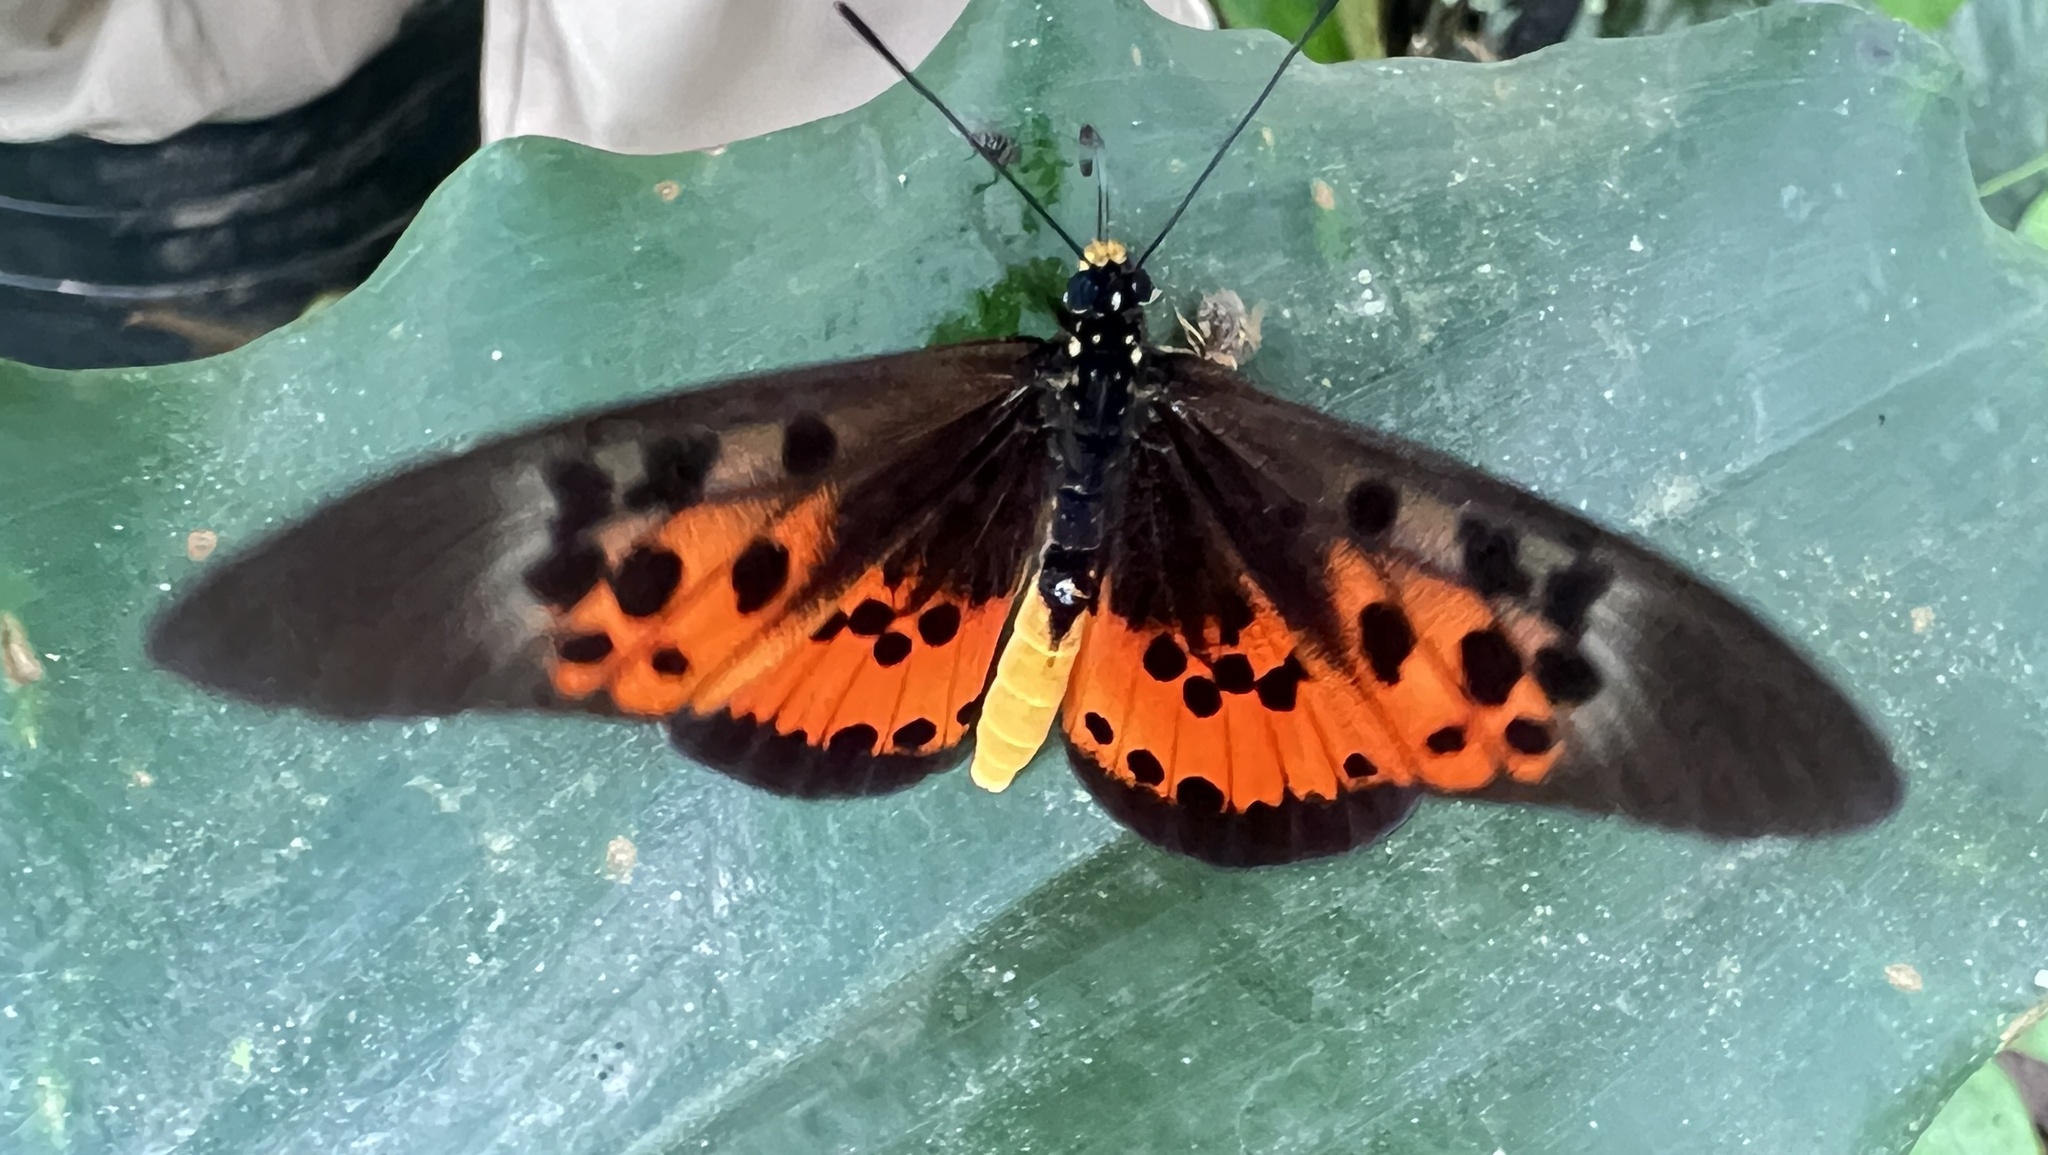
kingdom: Animalia
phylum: Arthropoda
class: Insecta
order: Lepidoptera
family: Nymphalidae
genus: Rubraea
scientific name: Rubraea
